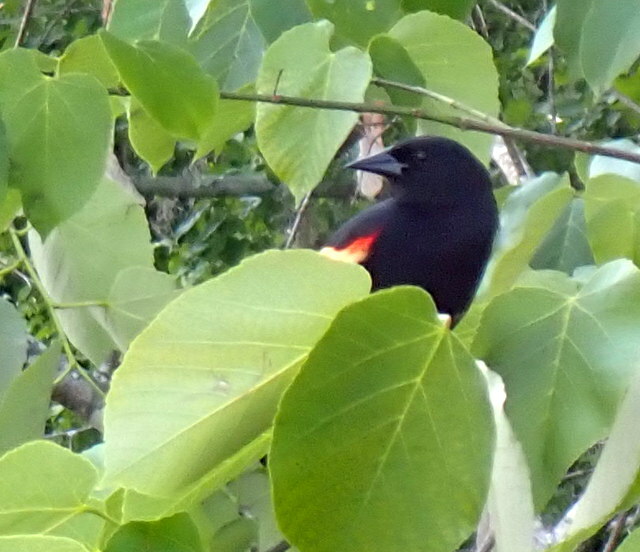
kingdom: Animalia
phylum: Chordata
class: Aves
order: Passeriformes
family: Icteridae
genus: Agelaius
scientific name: Agelaius phoeniceus
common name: Red-winged blackbird
